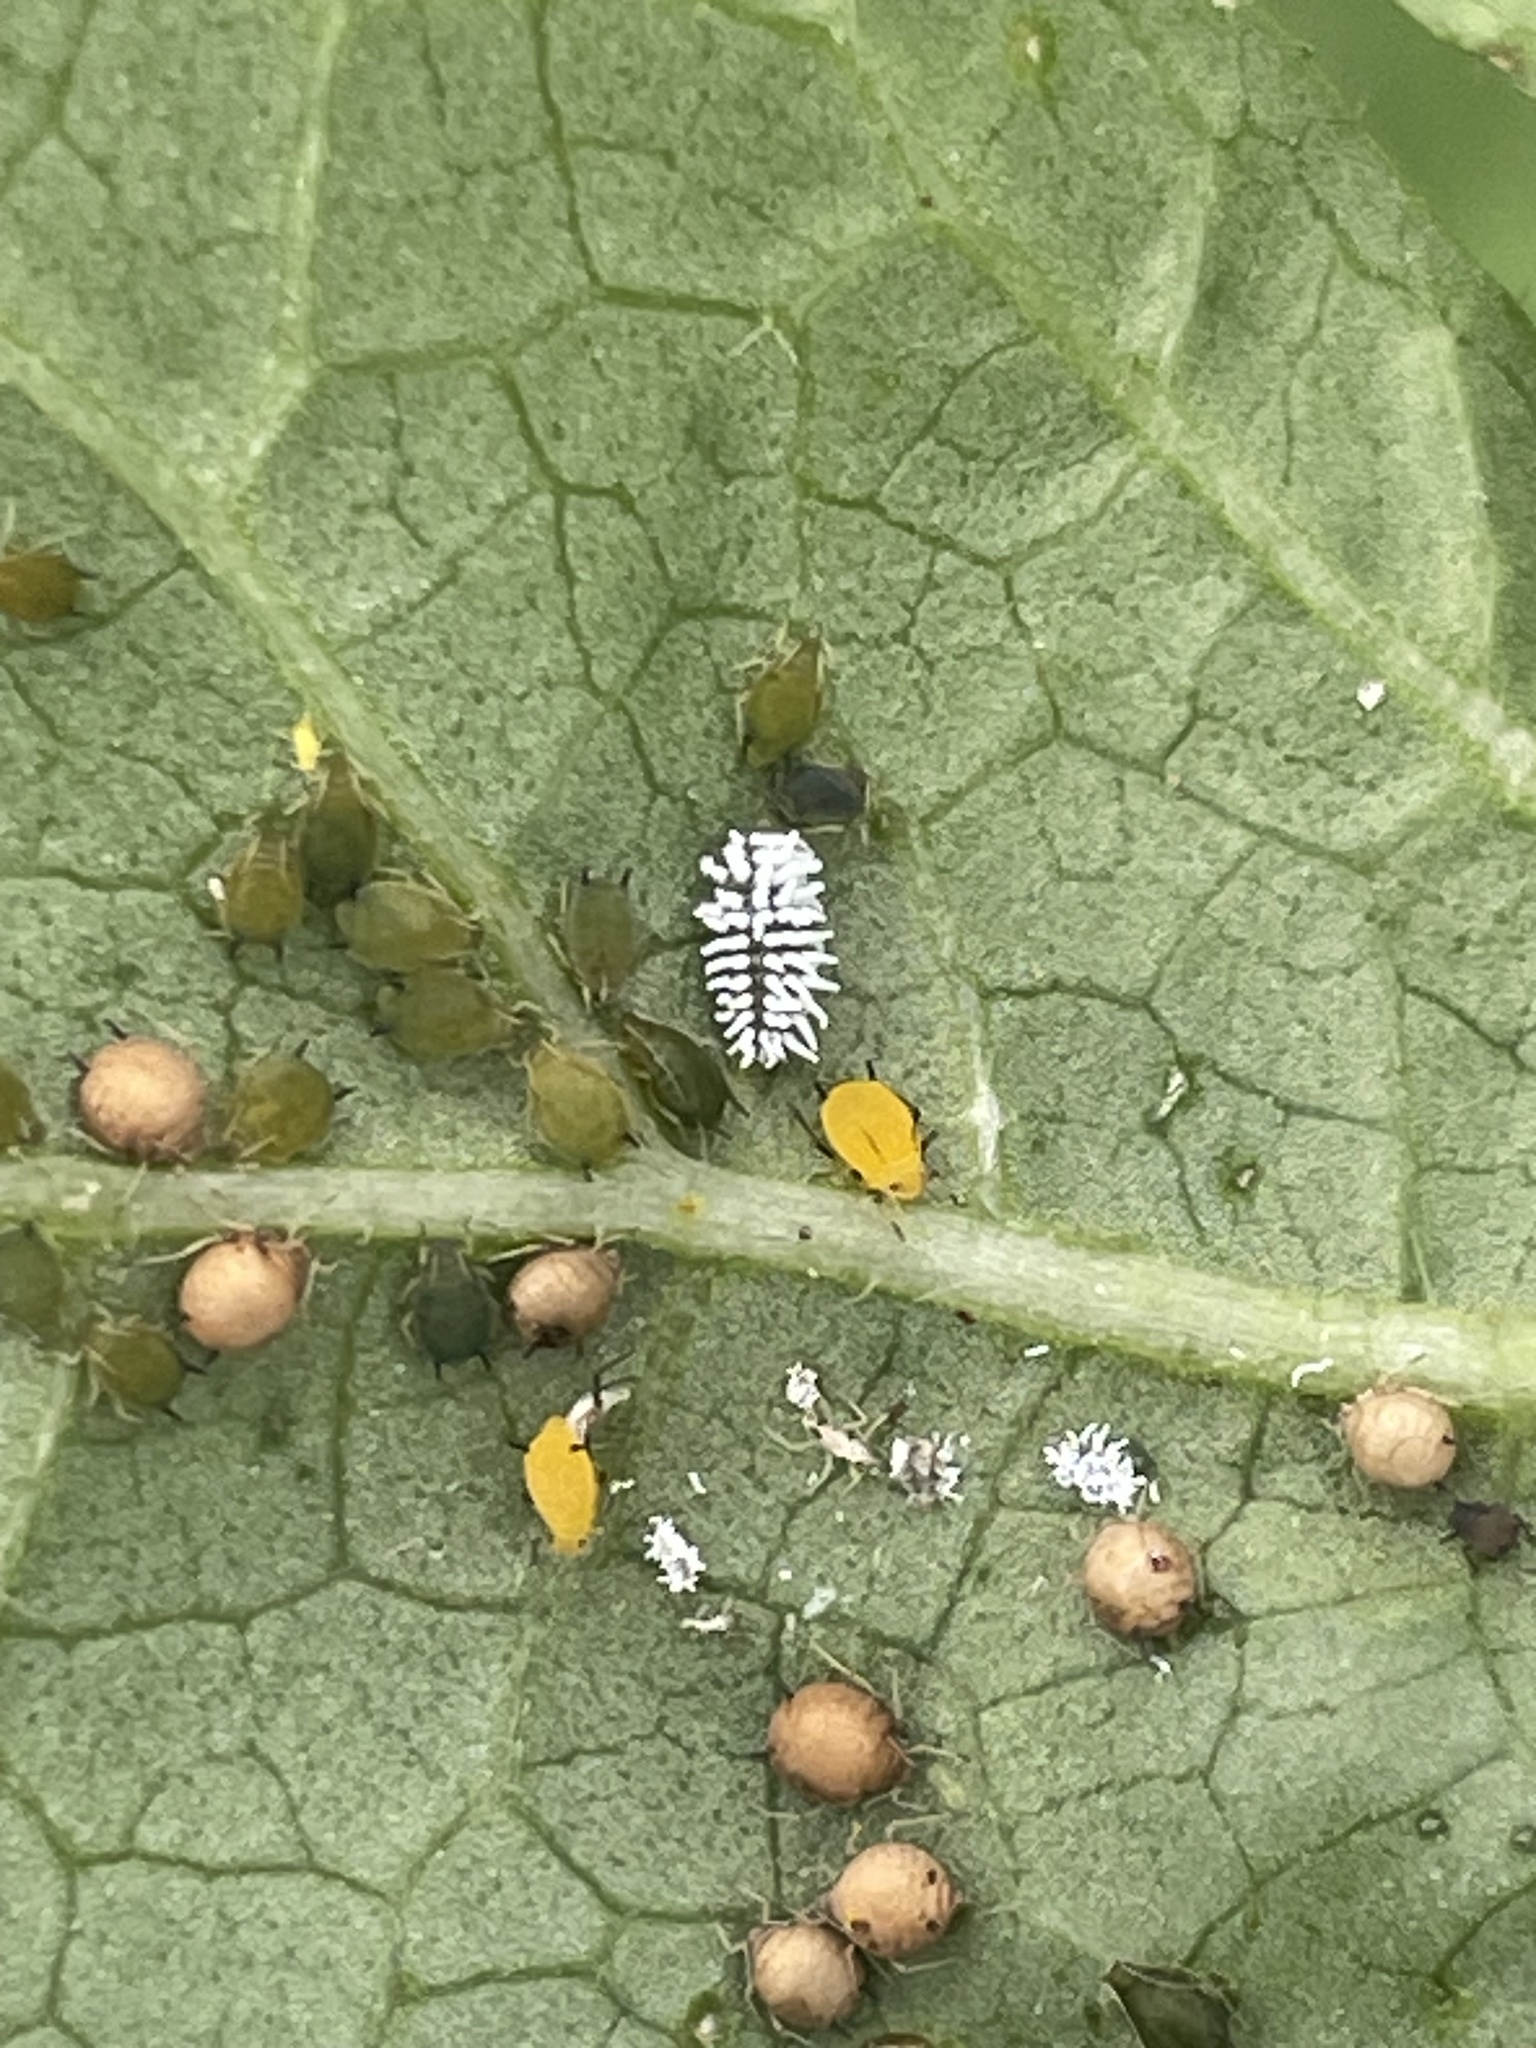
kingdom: Animalia
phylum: Arthropoda
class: Insecta
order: Hemiptera
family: Aphididae
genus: Aphis
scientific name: Aphis nerii
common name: Oleander aphid
